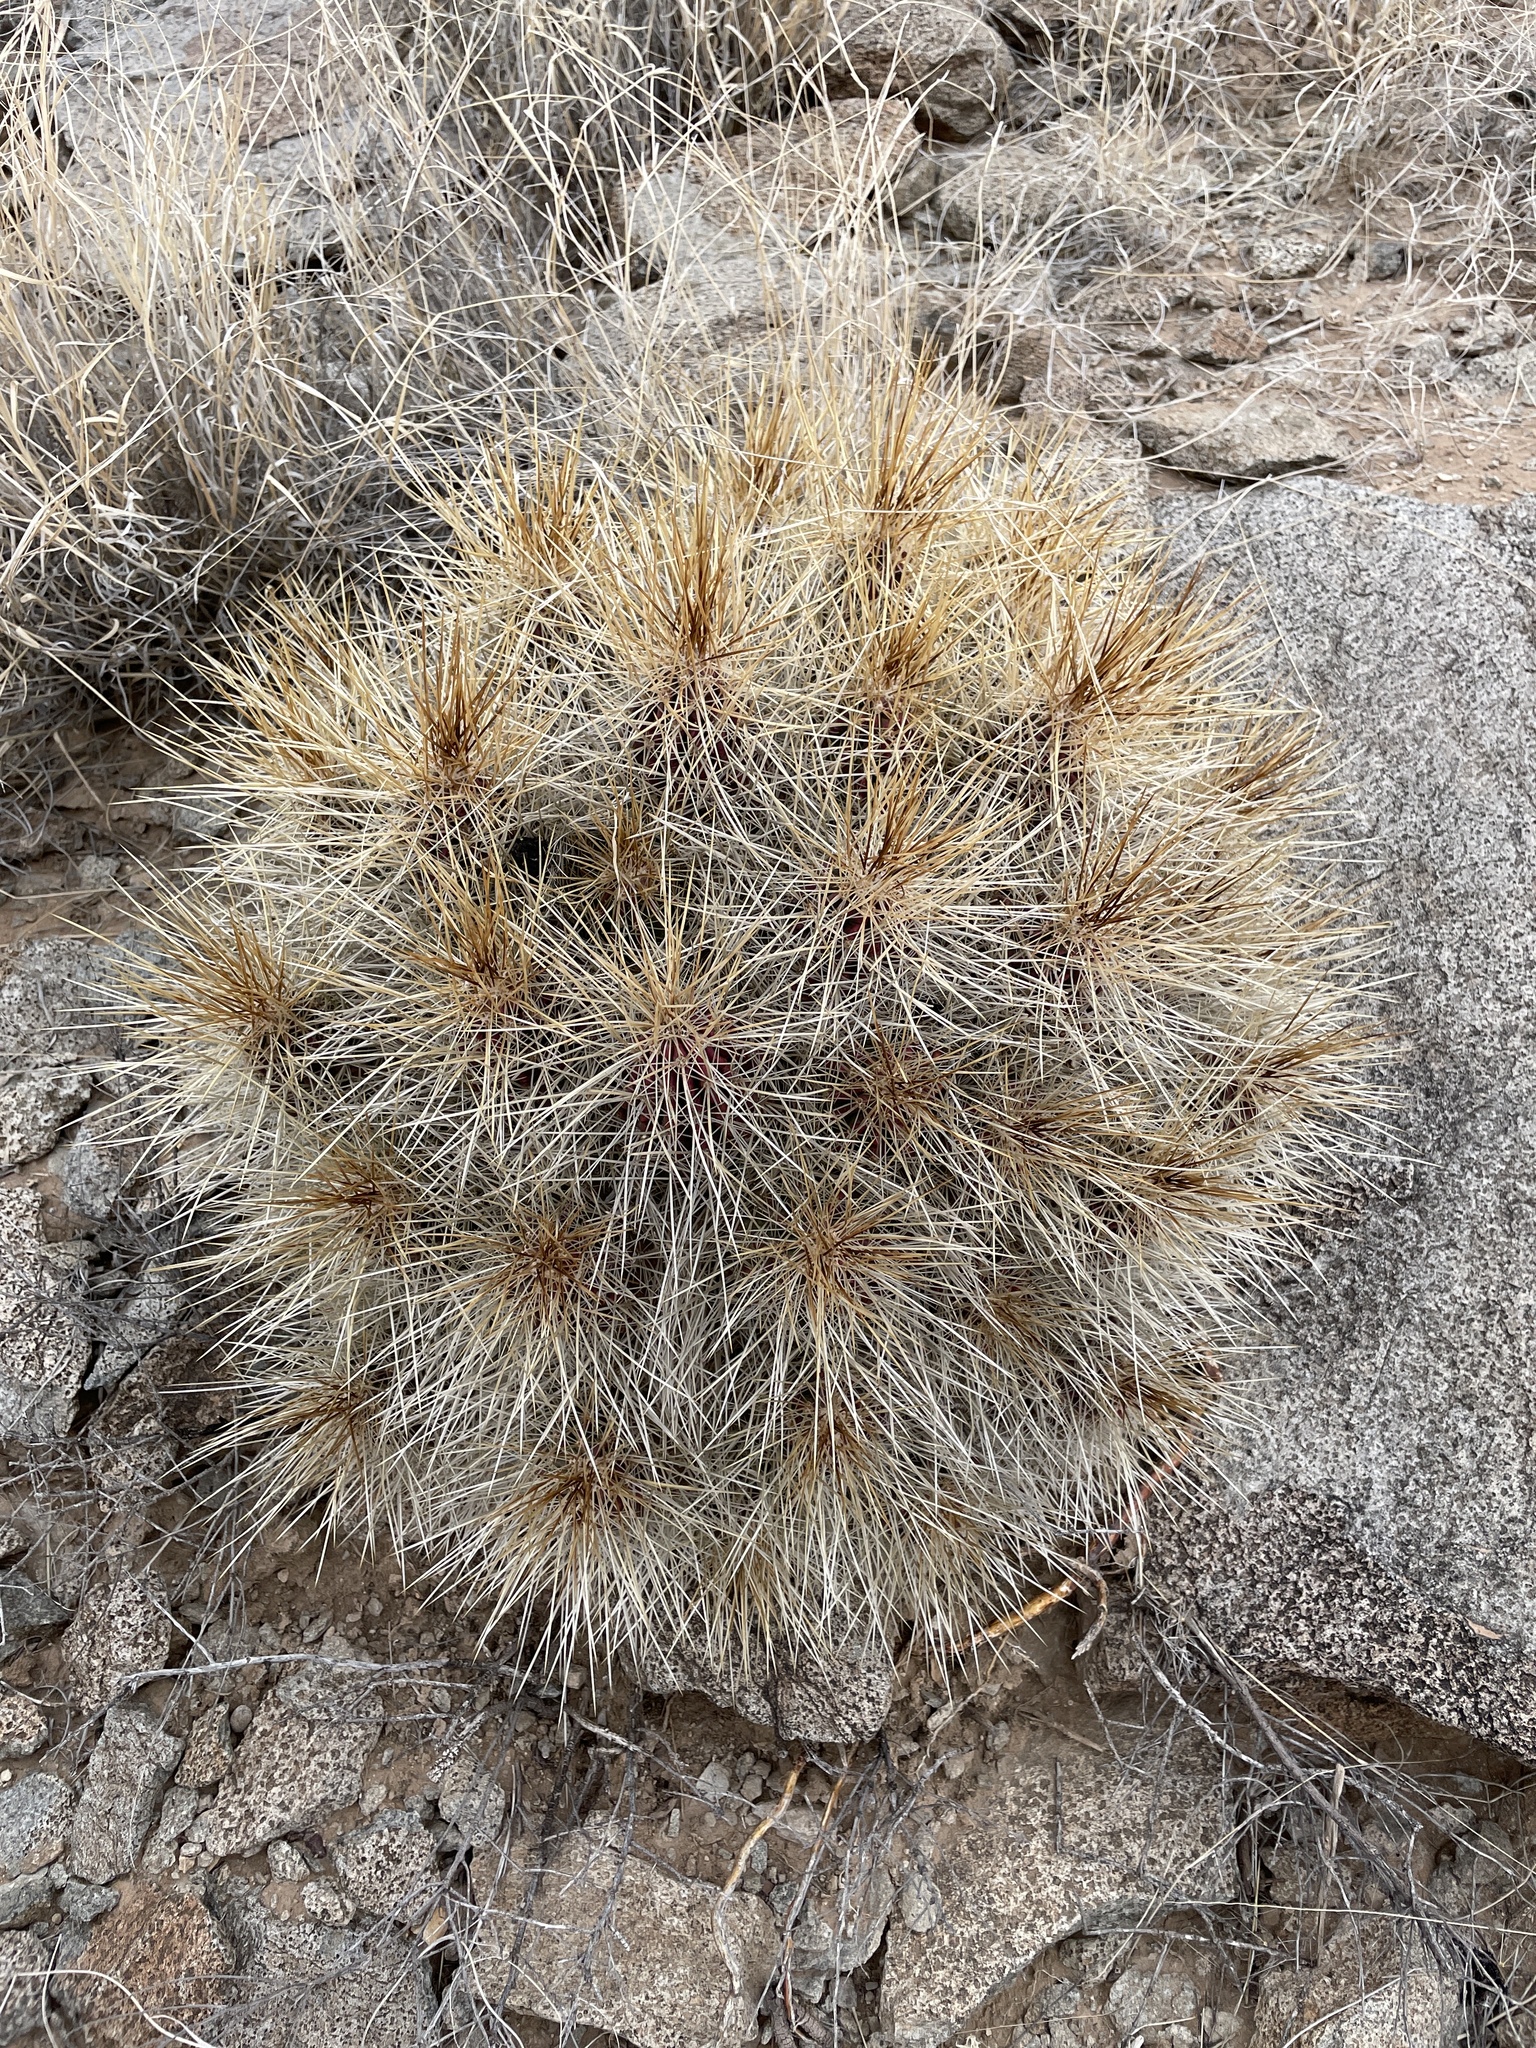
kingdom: Plantae
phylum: Tracheophyta
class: Magnoliopsida
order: Caryophyllales
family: Cactaceae
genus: Echinocereus
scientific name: Echinocereus stramineus
